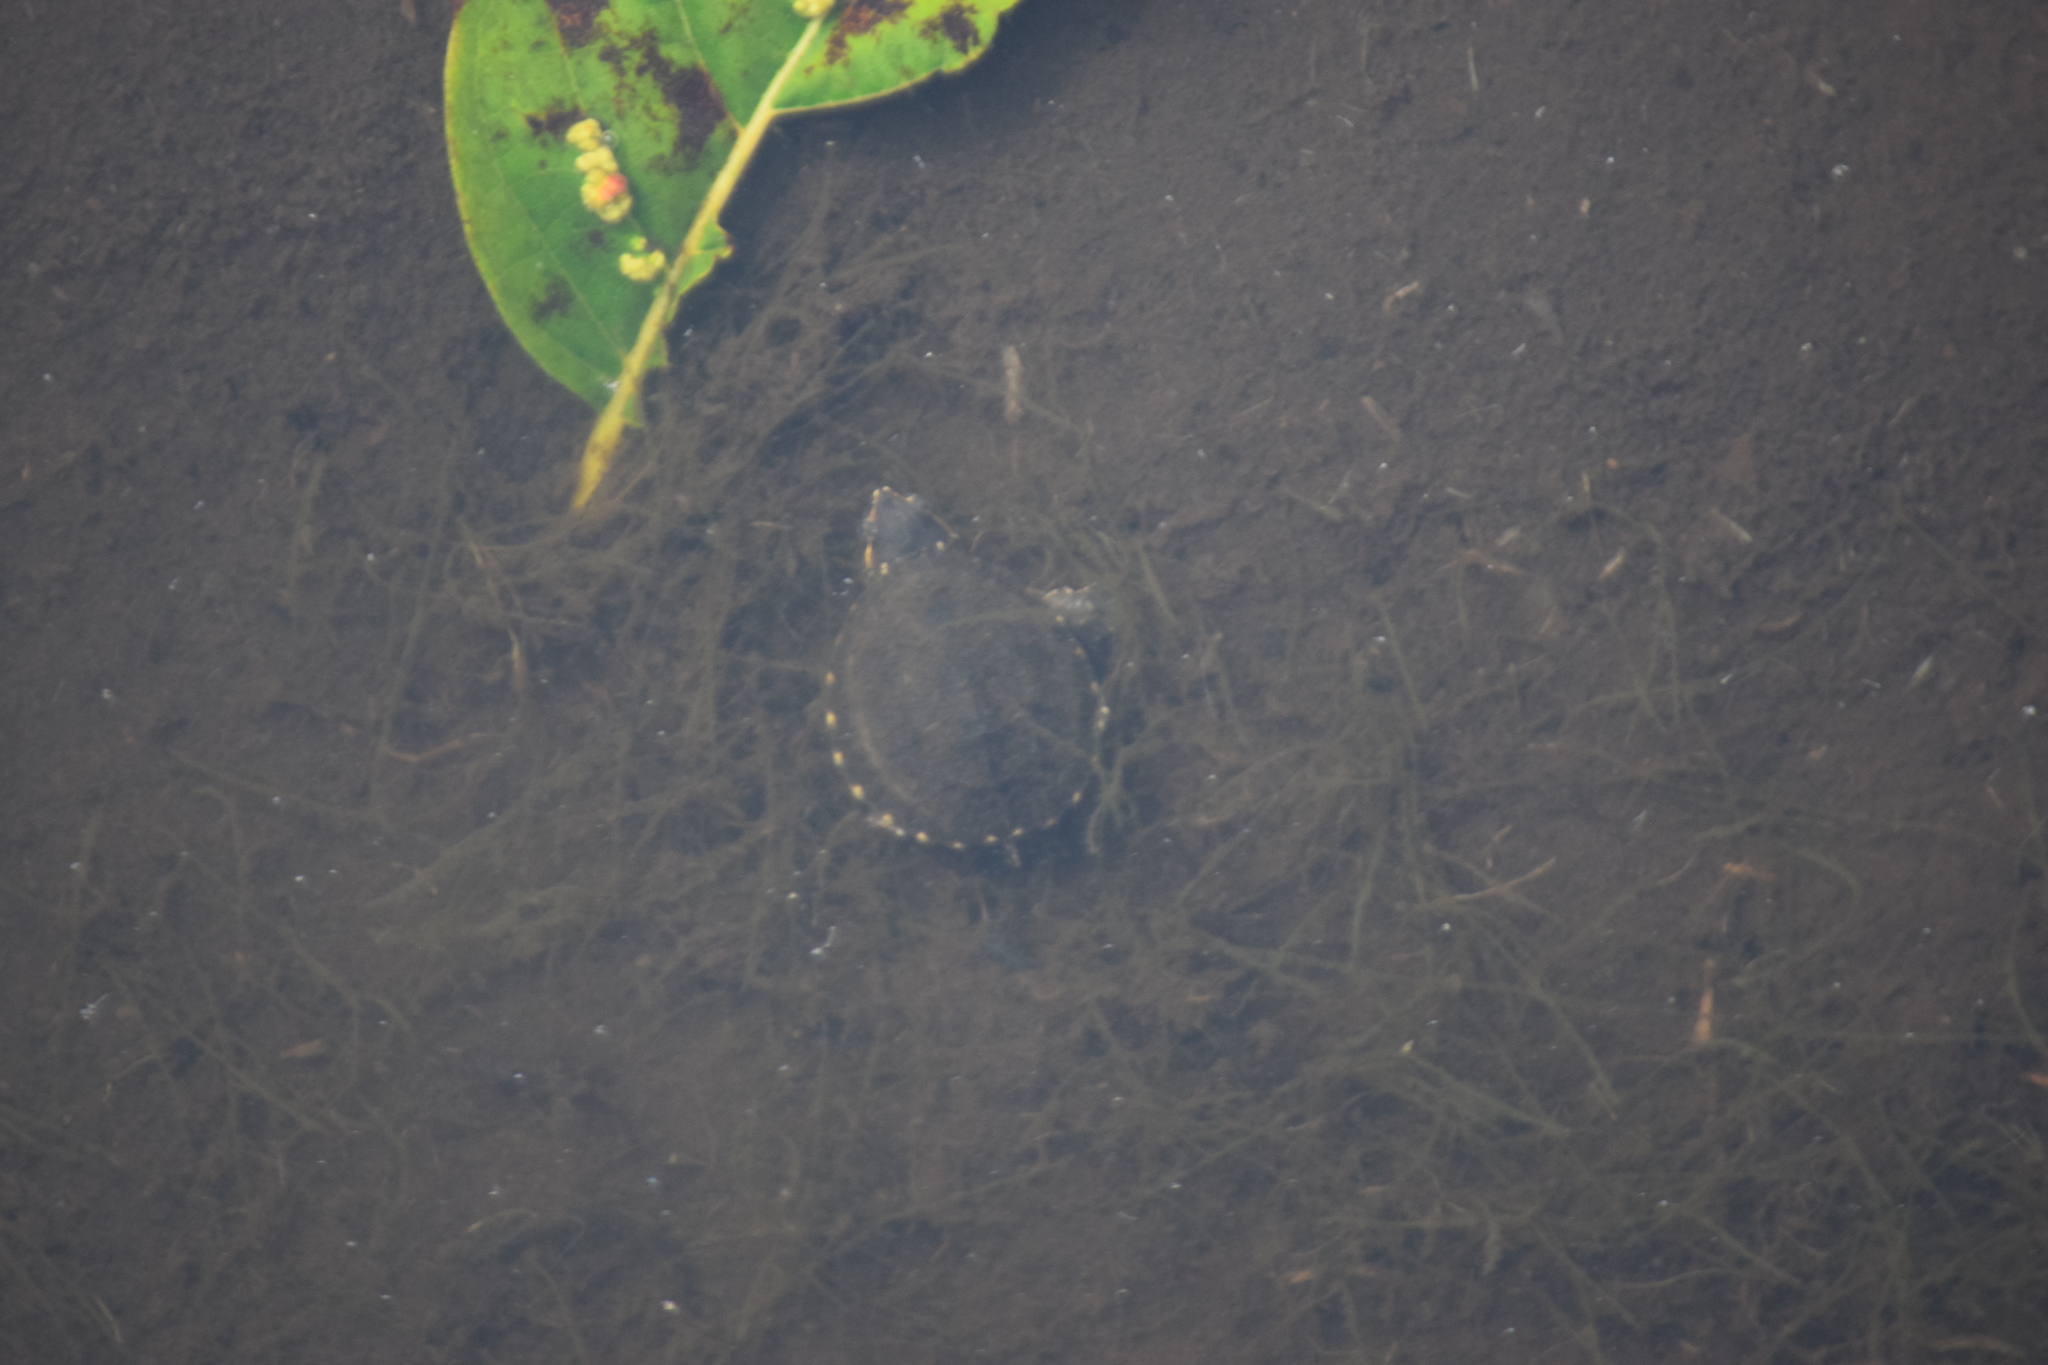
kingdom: Animalia
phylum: Chordata
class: Testudines
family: Kinosternidae
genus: Sternotherus
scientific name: Sternotherus odoratus
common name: Common musk turtle
